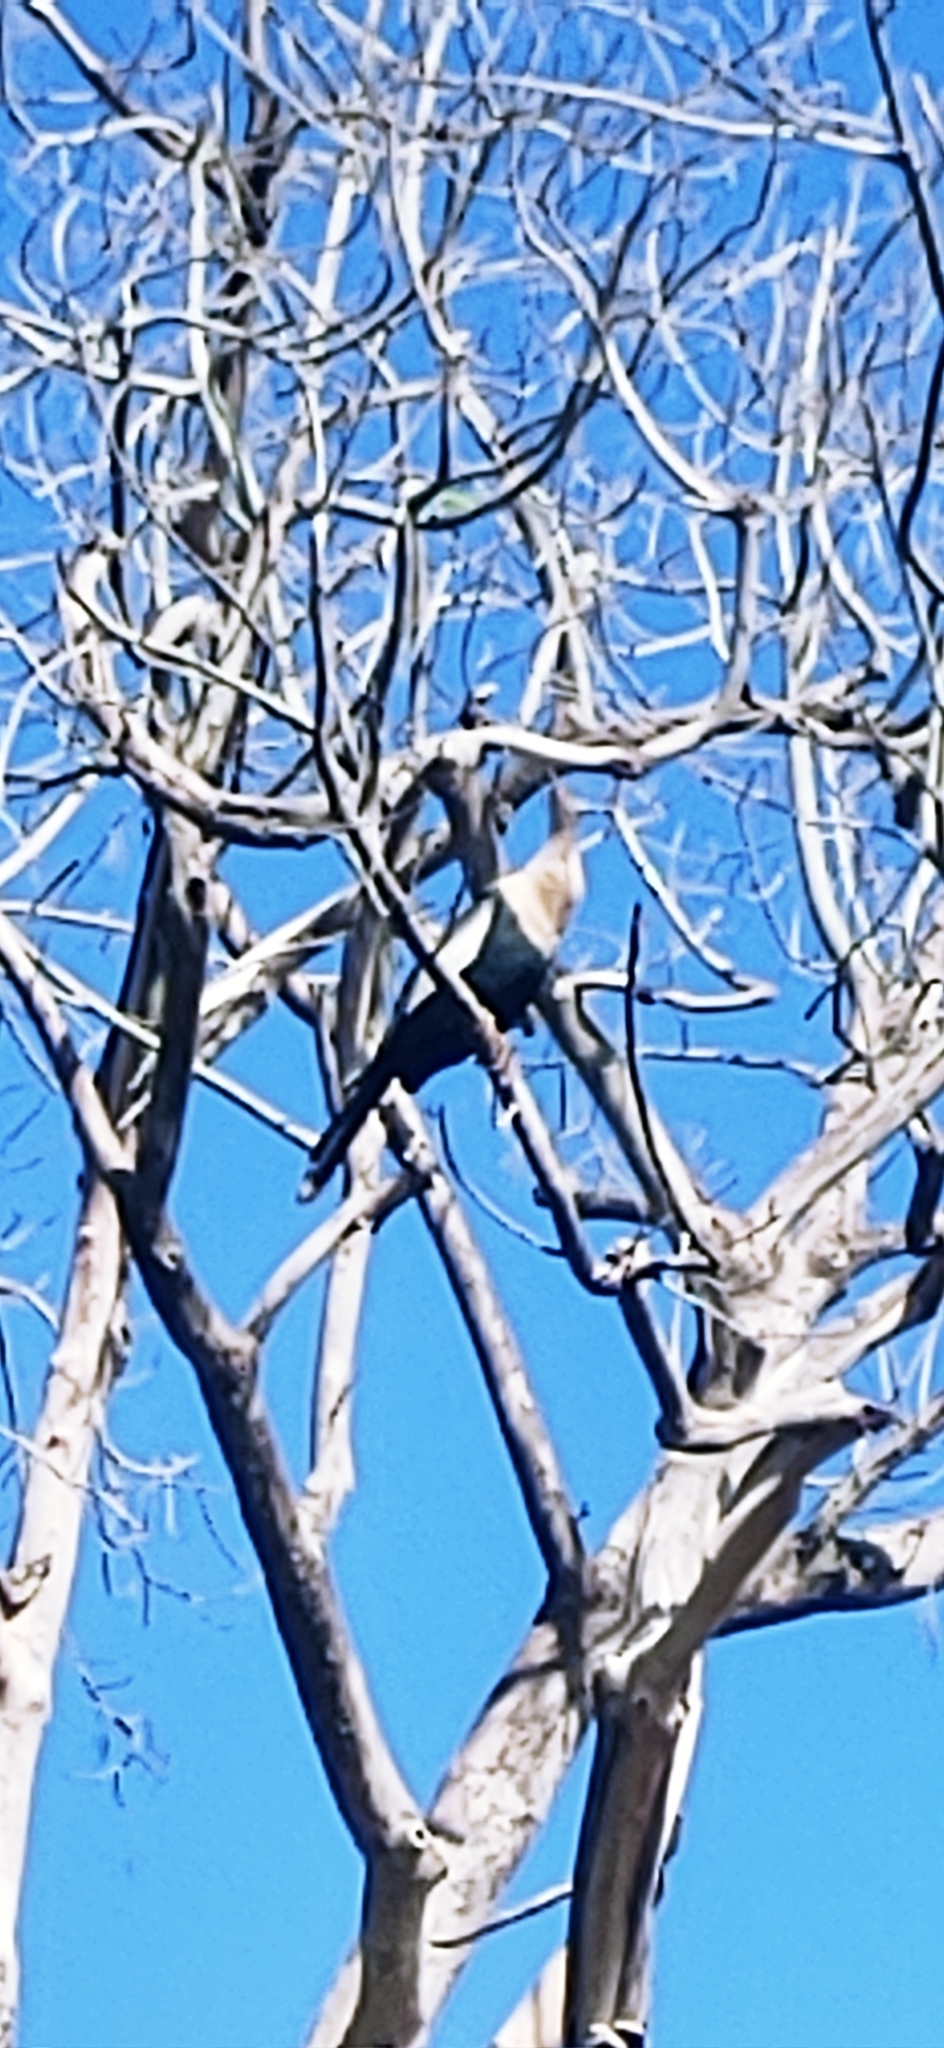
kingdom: Animalia
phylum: Chordata
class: Aves
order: Suliformes
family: Anhingidae
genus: Anhinga
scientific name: Anhinga anhinga
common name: Anhinga
